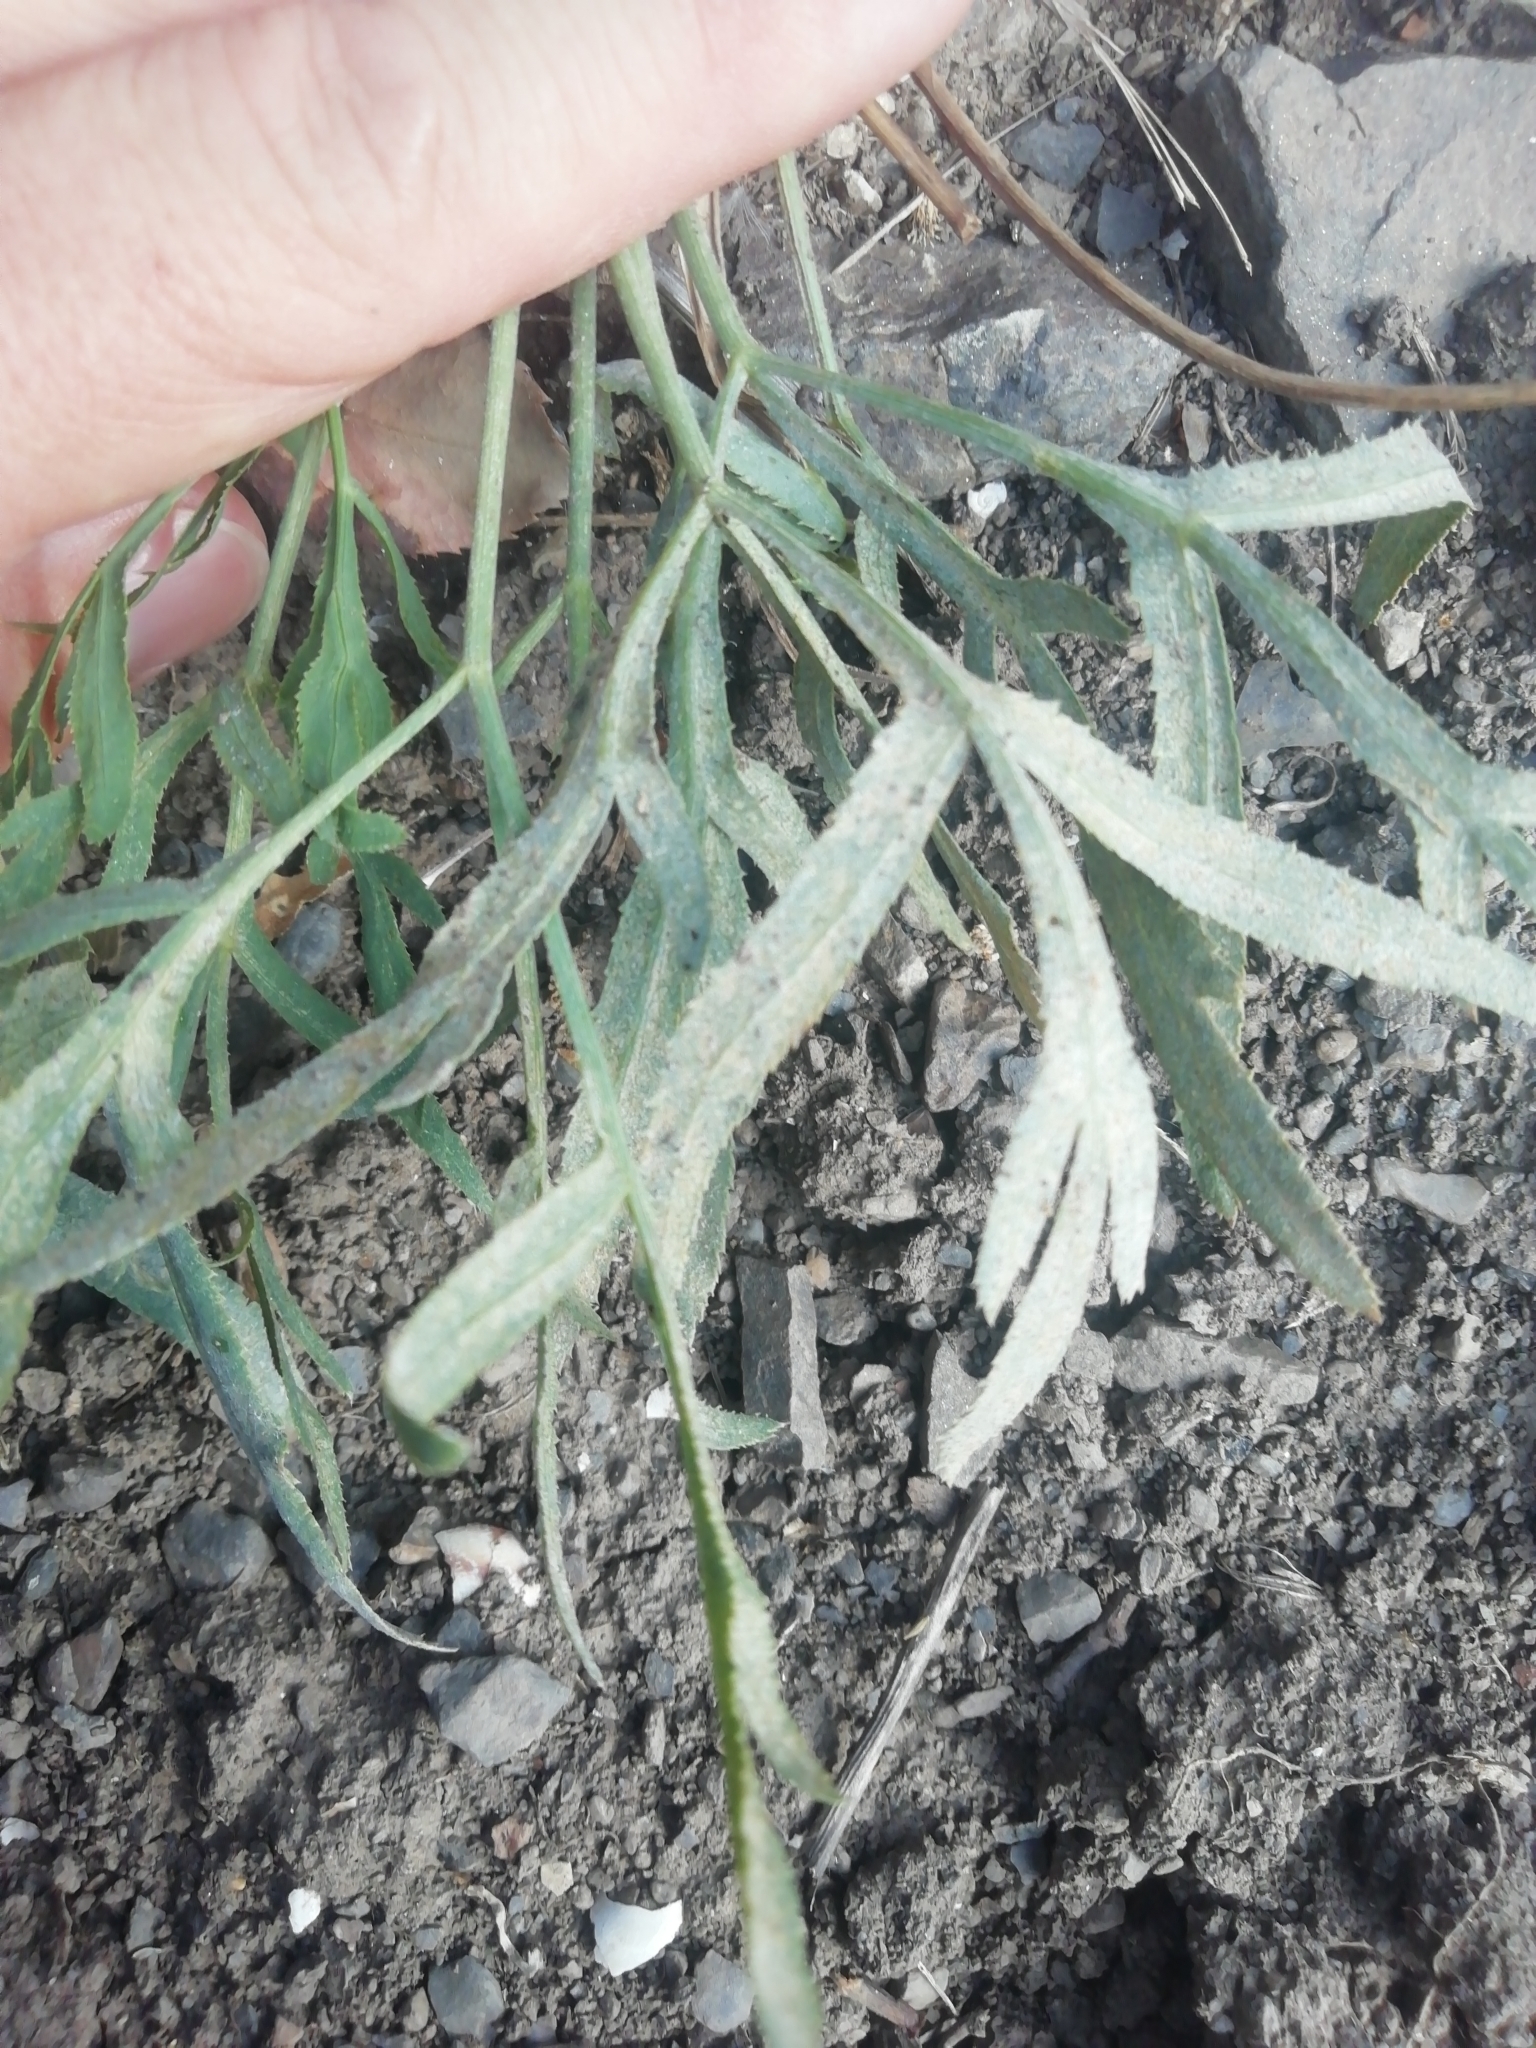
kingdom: Plantae
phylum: Tracheophyta
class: Magnoliopsida
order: Apiales
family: Apiaceae
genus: Falcaria
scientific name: Falcaria vulgaris
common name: Longleaf
